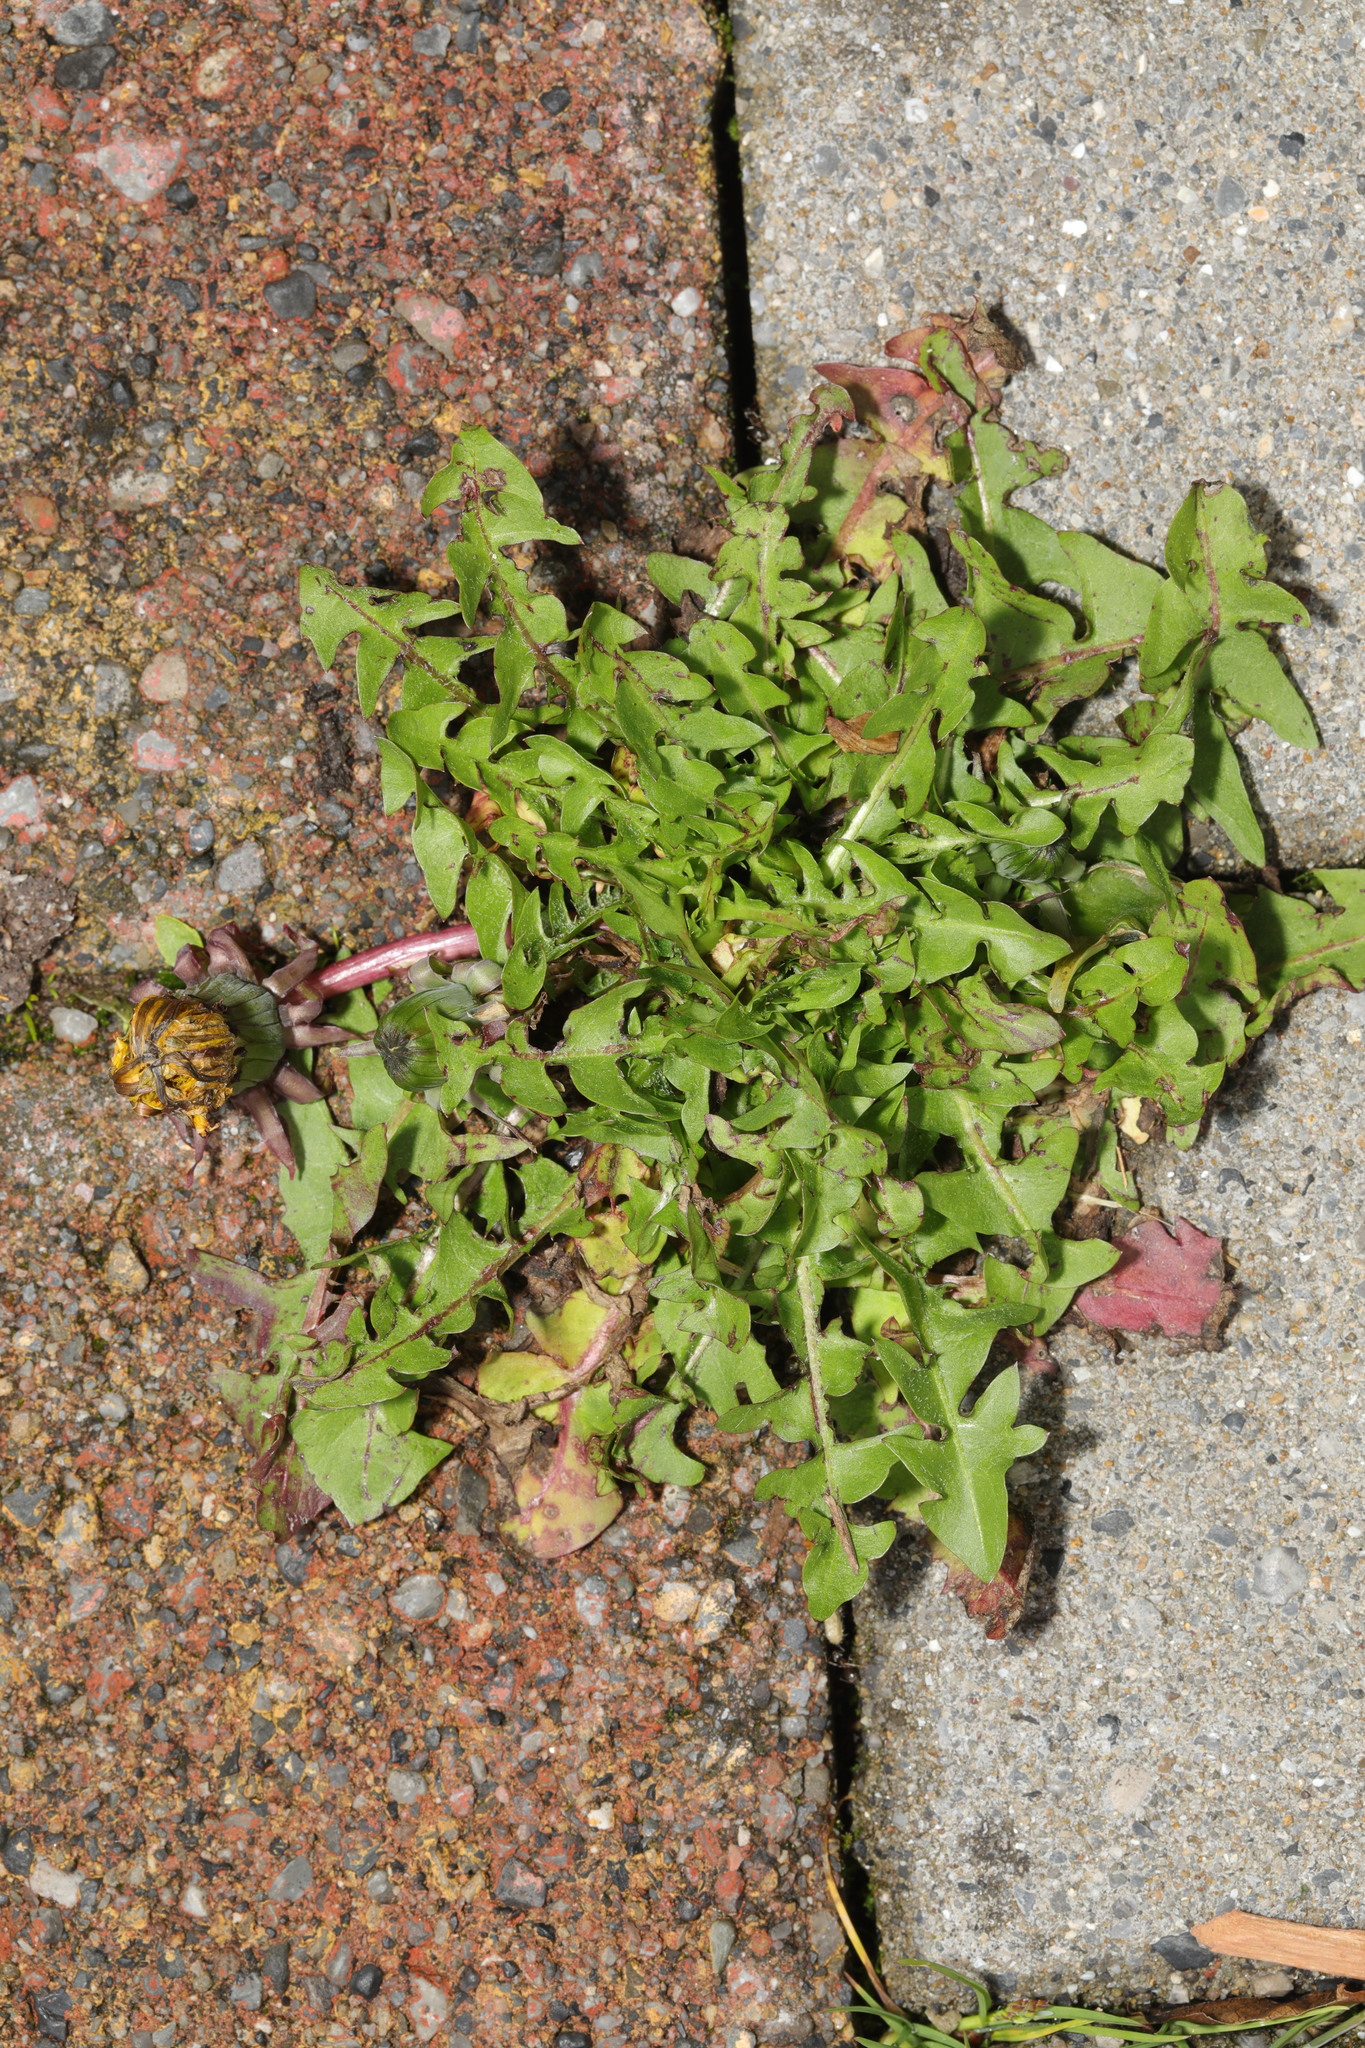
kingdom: Plantae
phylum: Tracheophyta
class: Magnoliopsida
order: Asterales
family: Asteraceae
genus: Taraxacum
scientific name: Taraxacum officinale
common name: Common dandelion
